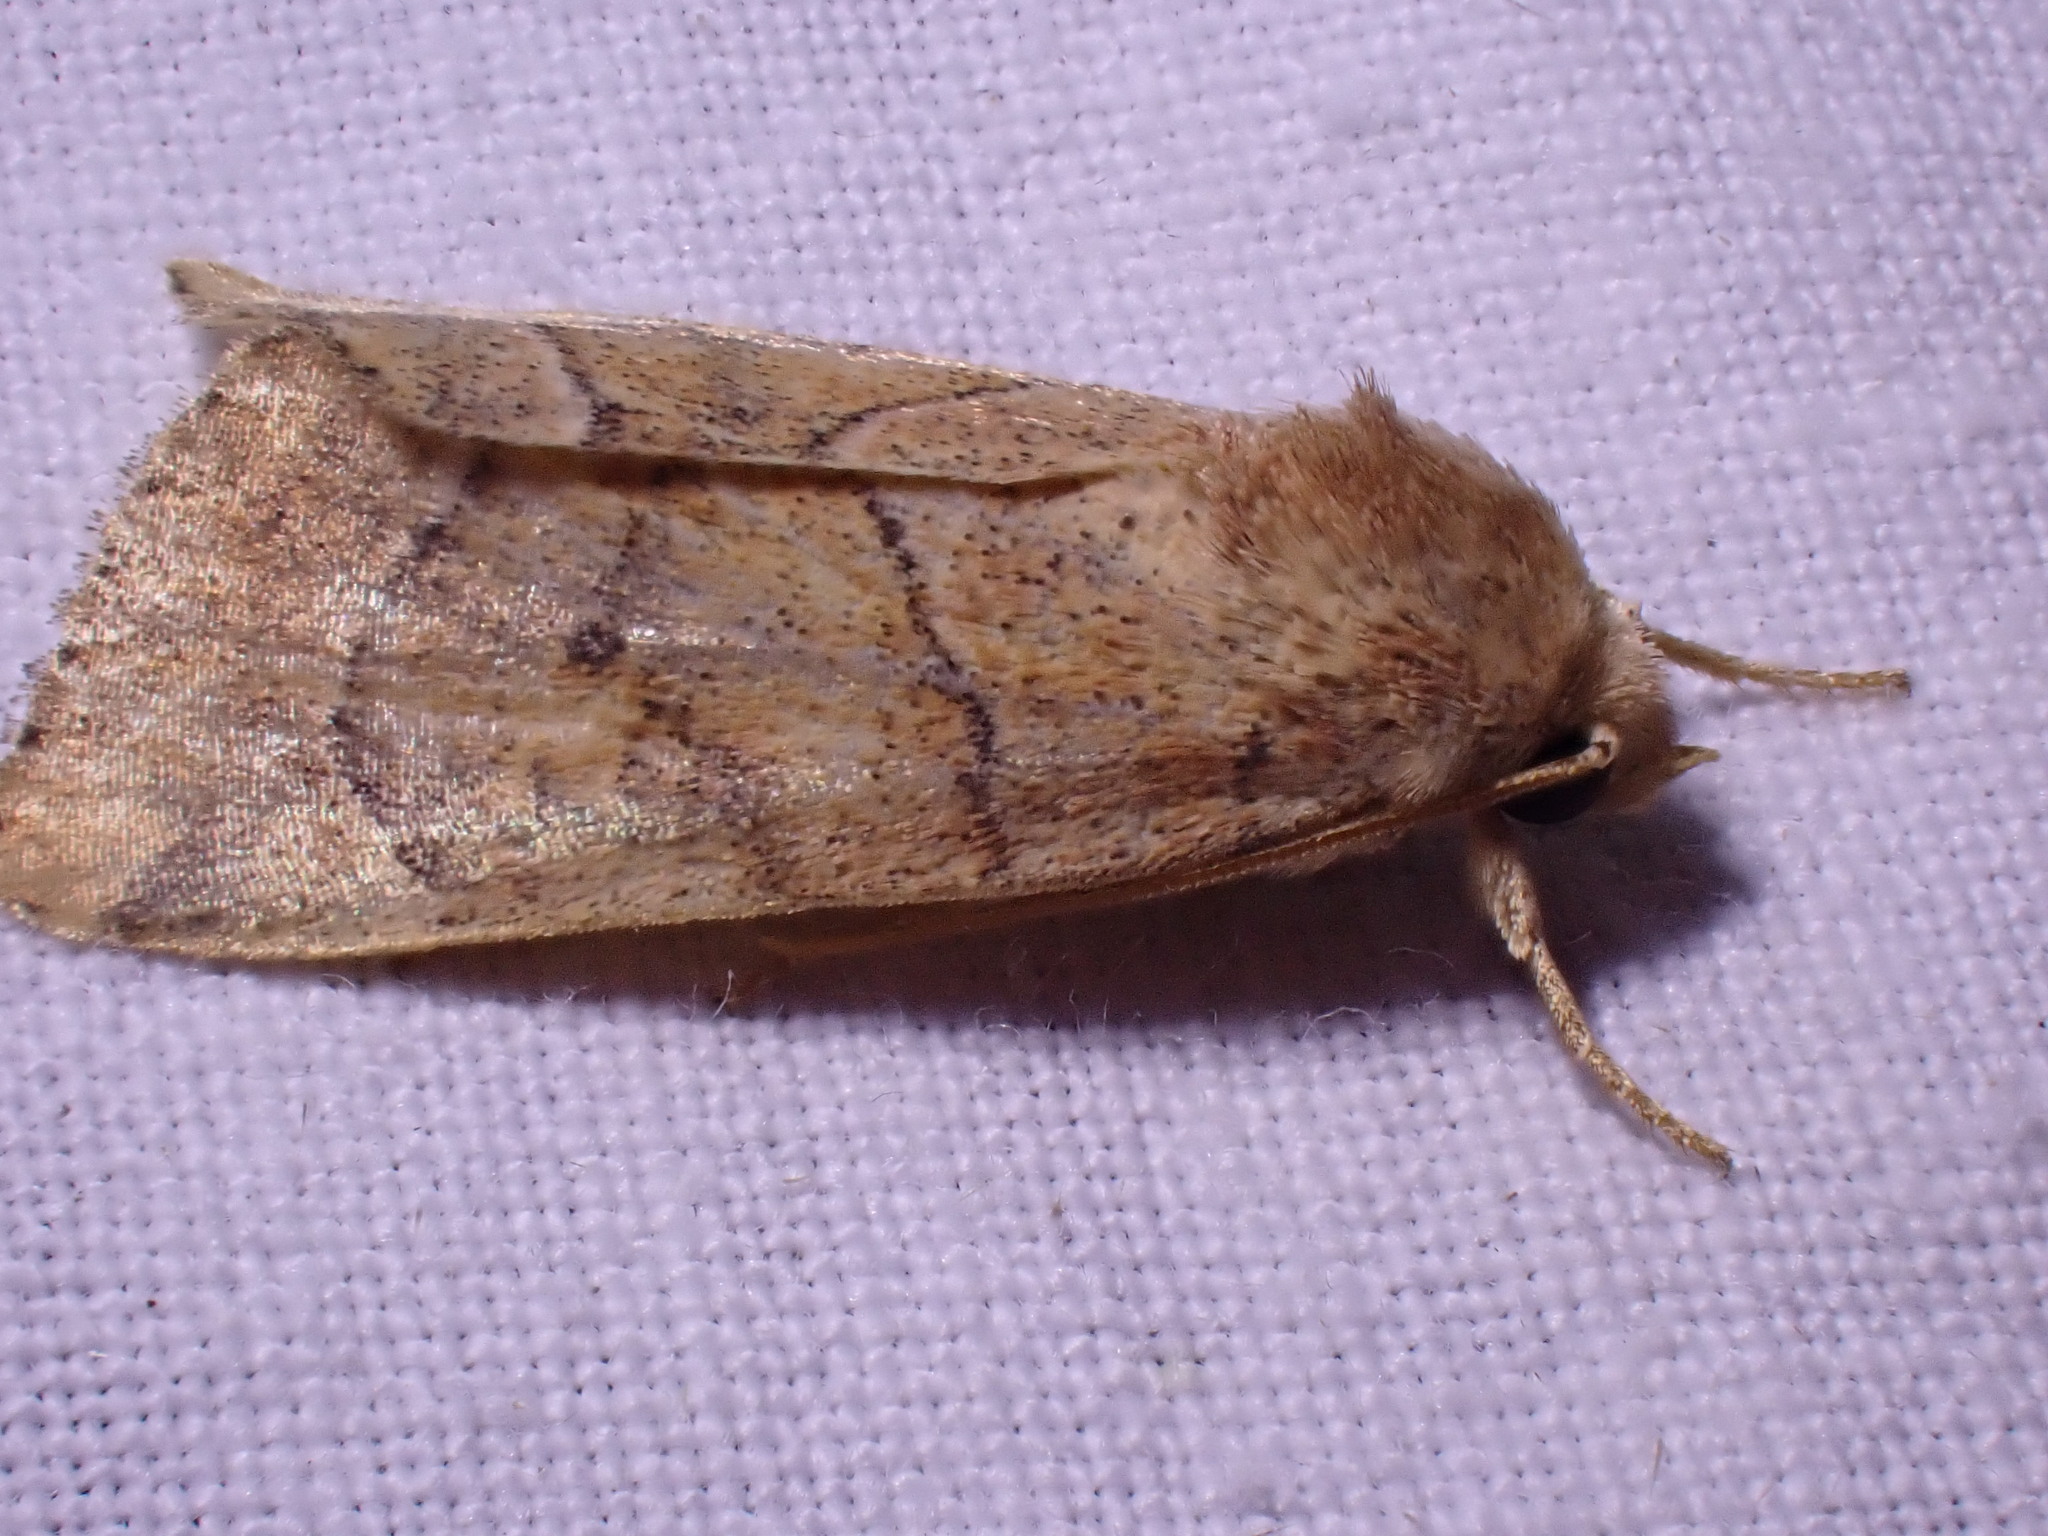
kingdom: Animalia
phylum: Arthropoda
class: Insecta
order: Lepidoptera
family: Noctuidae
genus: Cosmia
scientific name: Cosmia trapezina
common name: Dun-bar
